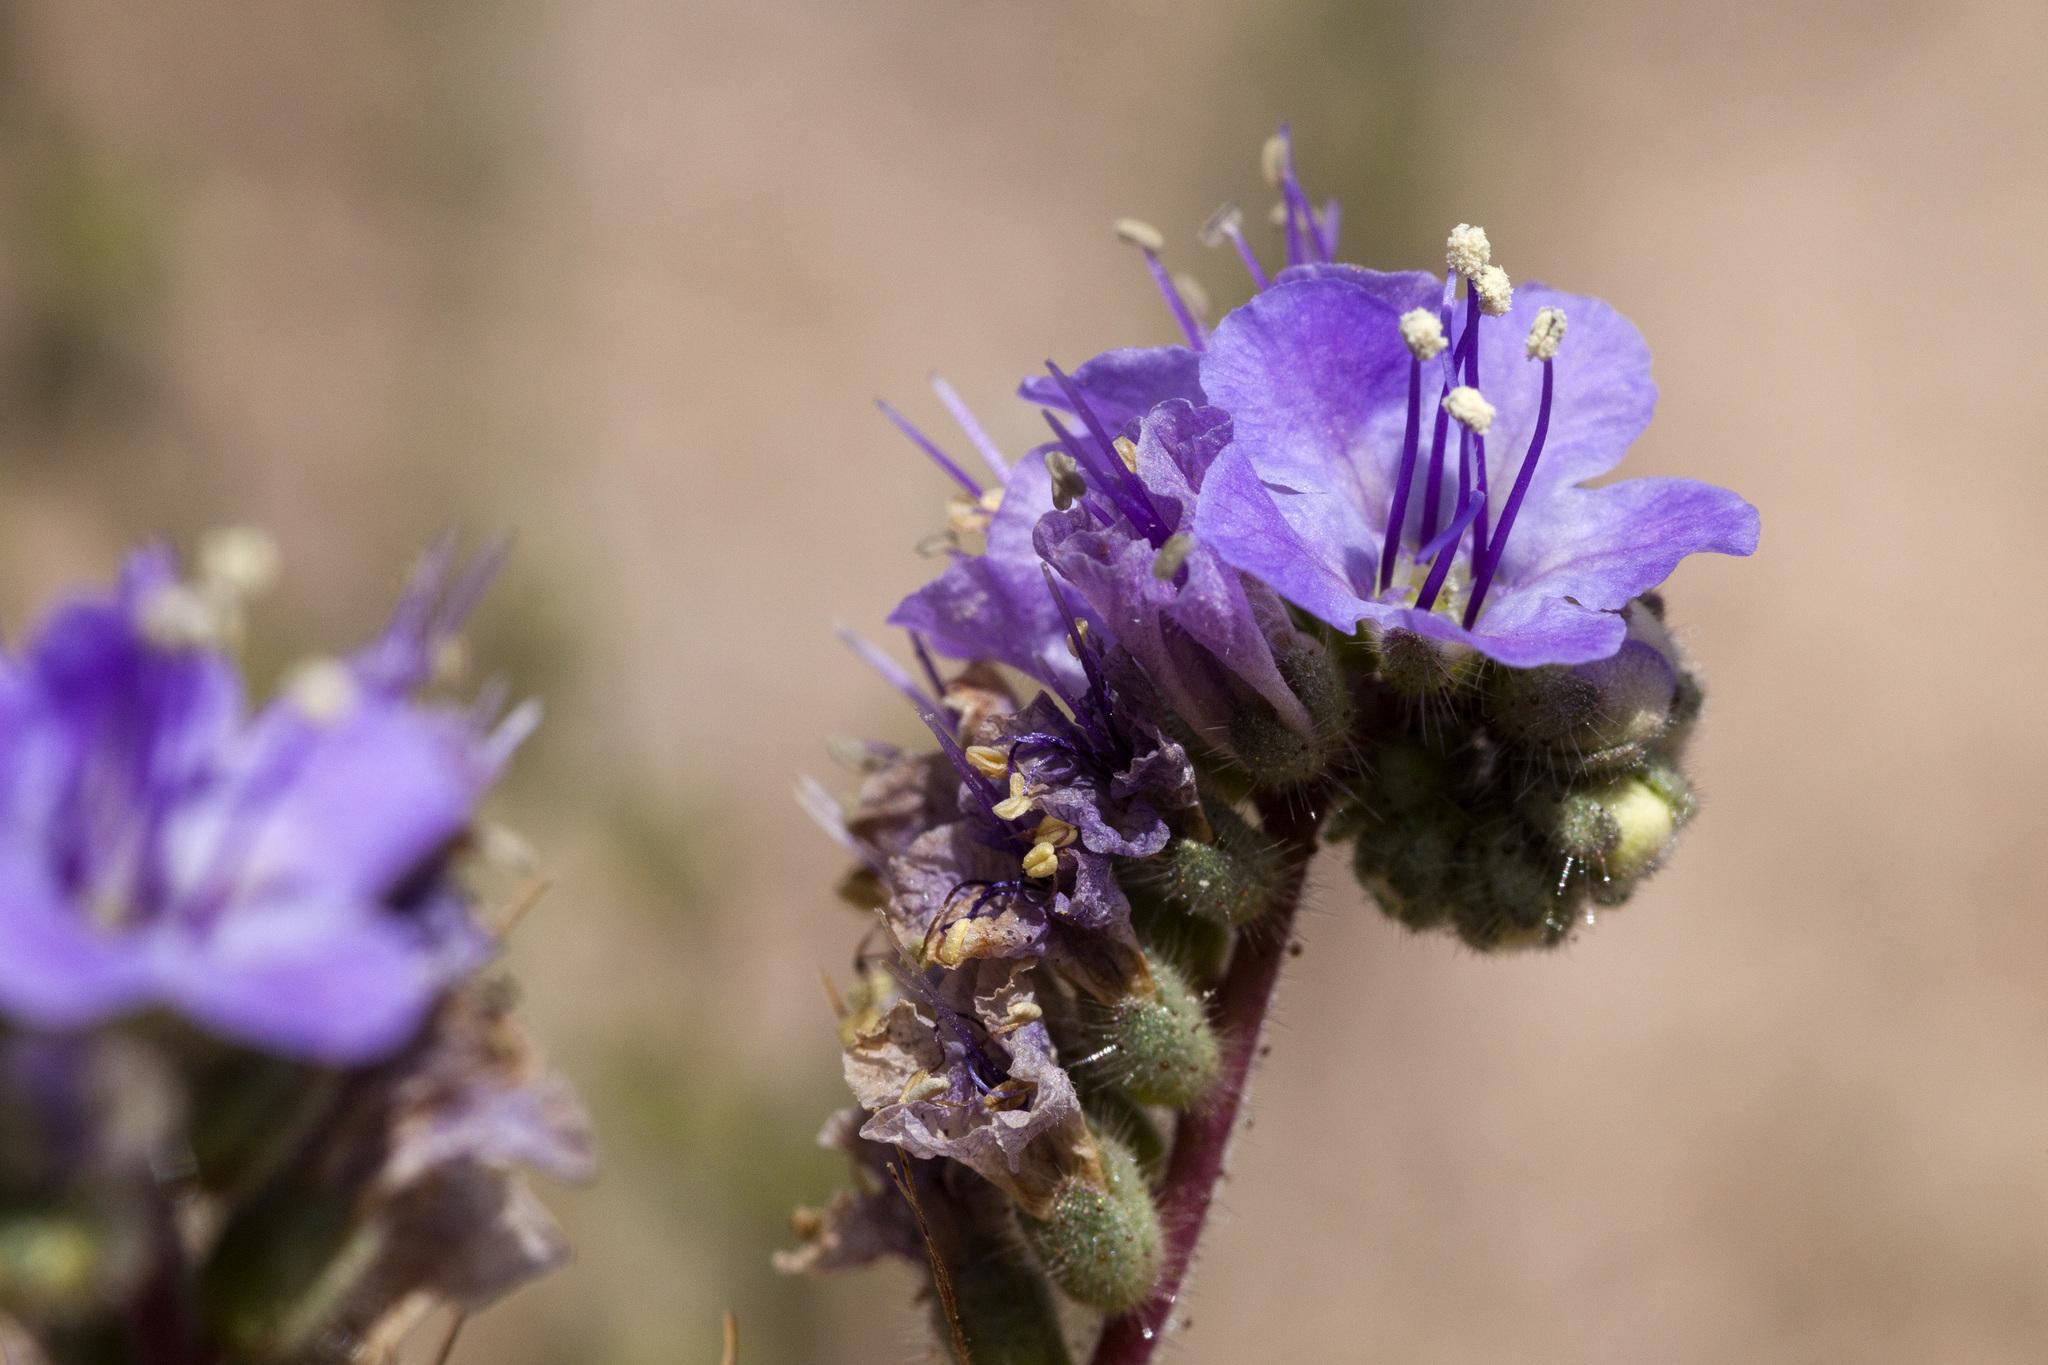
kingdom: Plantae
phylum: Tracheophyta
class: Magnoliopsida
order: Boraginales
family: Hydrophyllaceae
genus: Phacelia
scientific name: Phacelia bombycina
